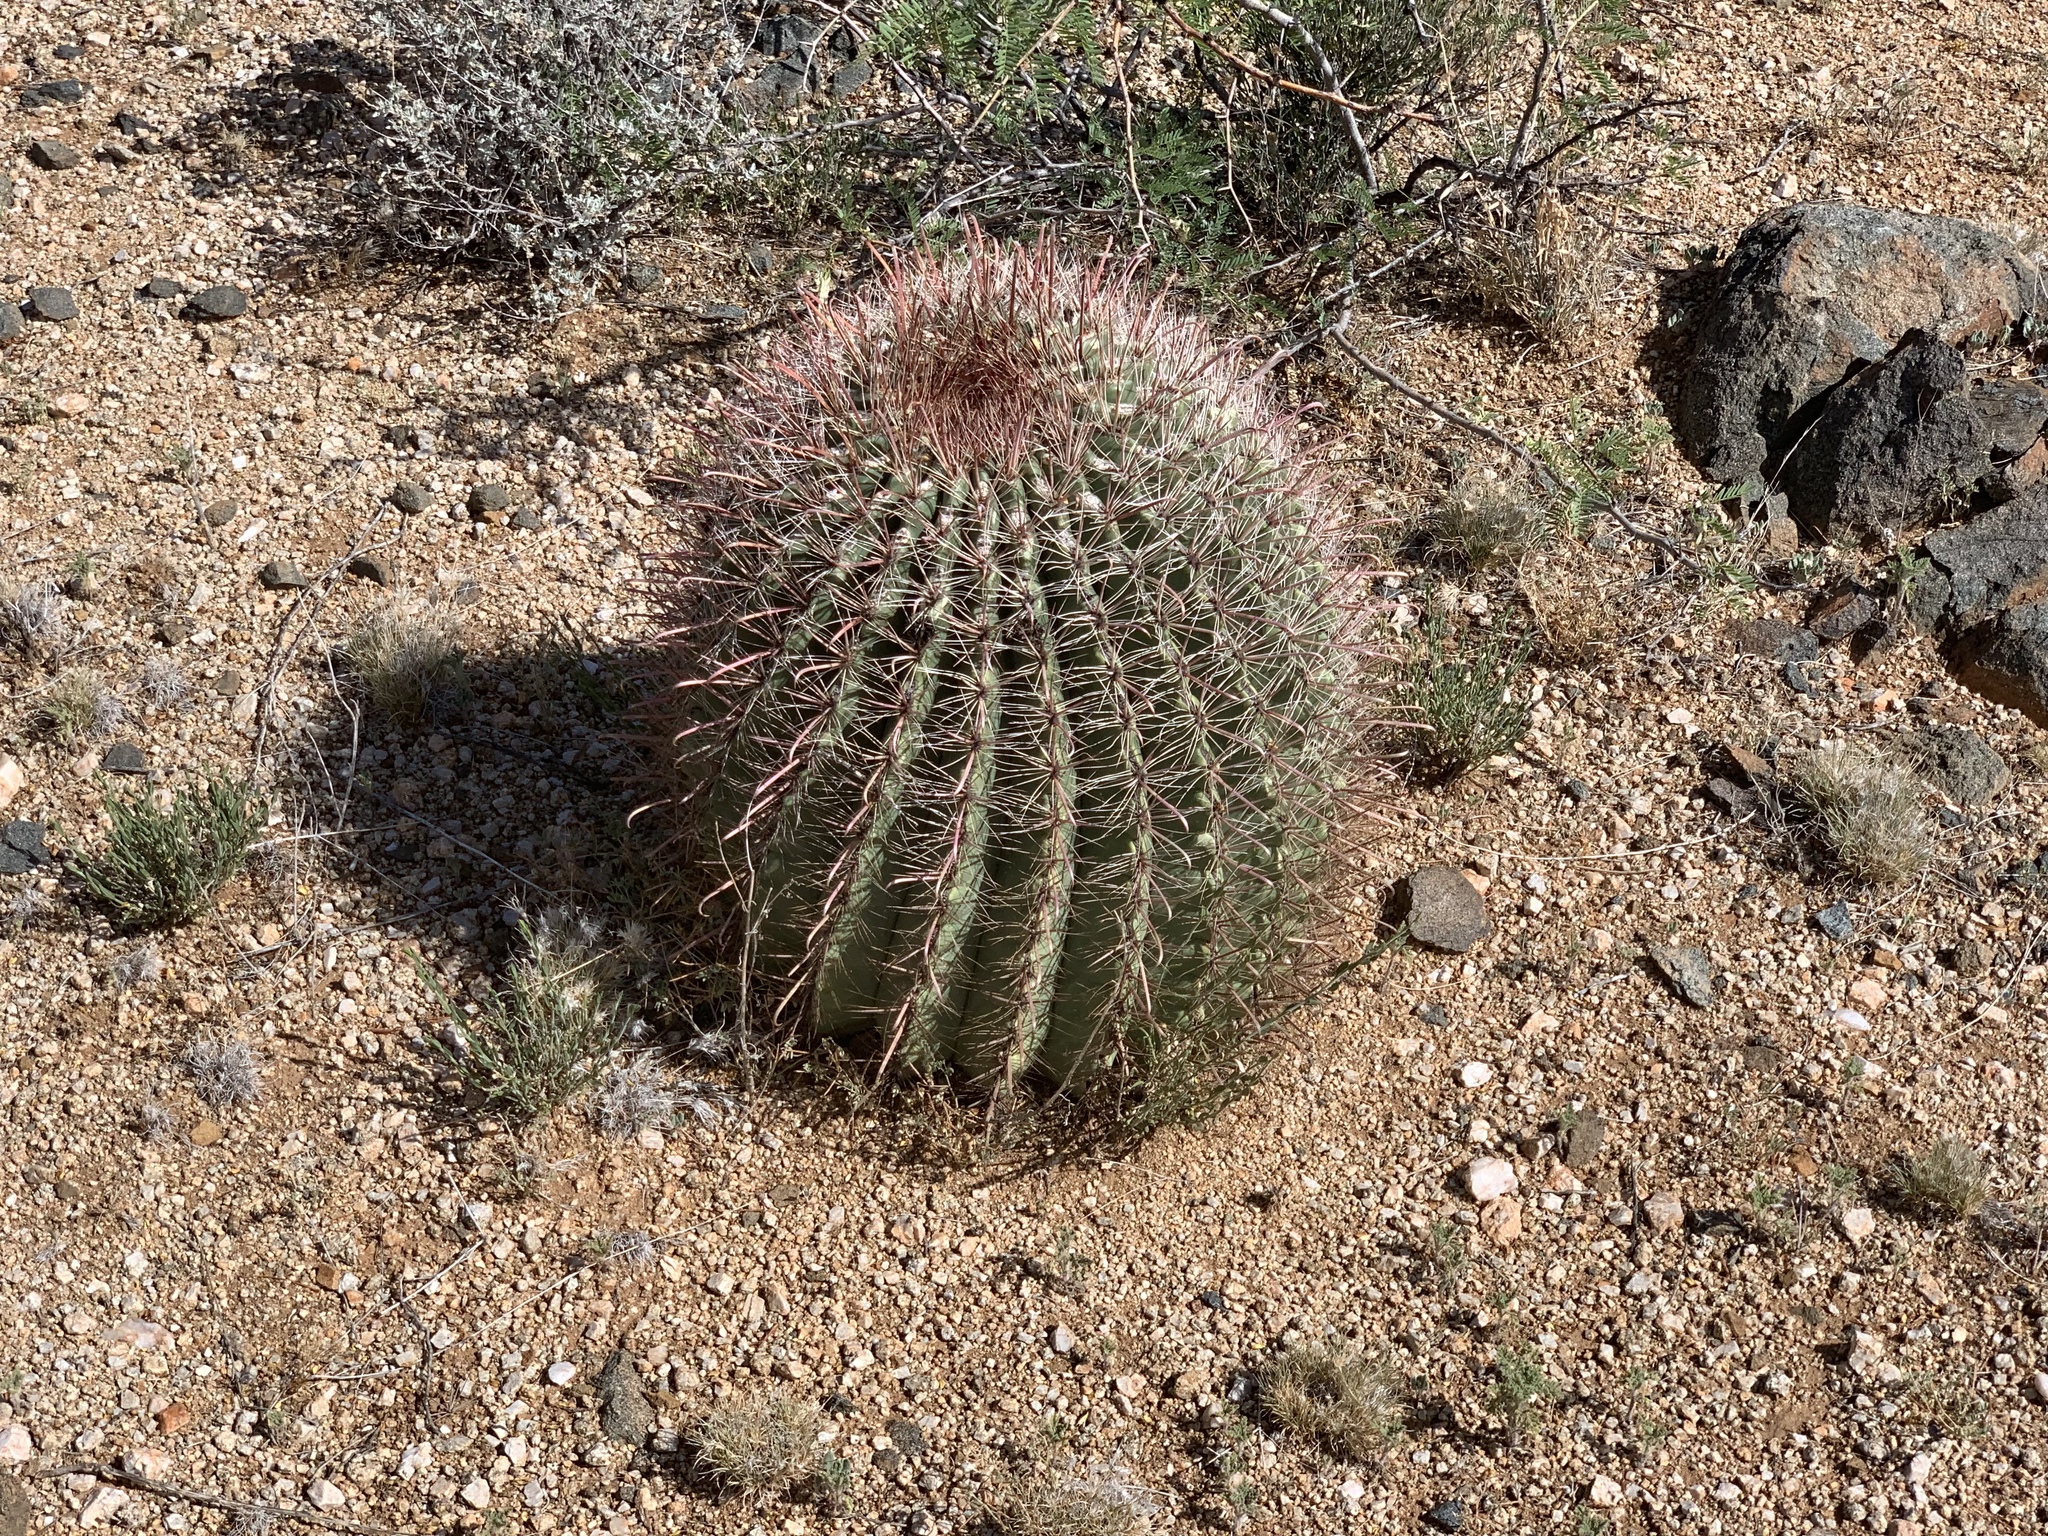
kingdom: Plantae
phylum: Tracheophyta
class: Magnoliopsida
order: Caryophyllales
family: Cactaceae
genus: Ferocactus
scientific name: Ferocactus wislizeni
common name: Candy barrel cactus
